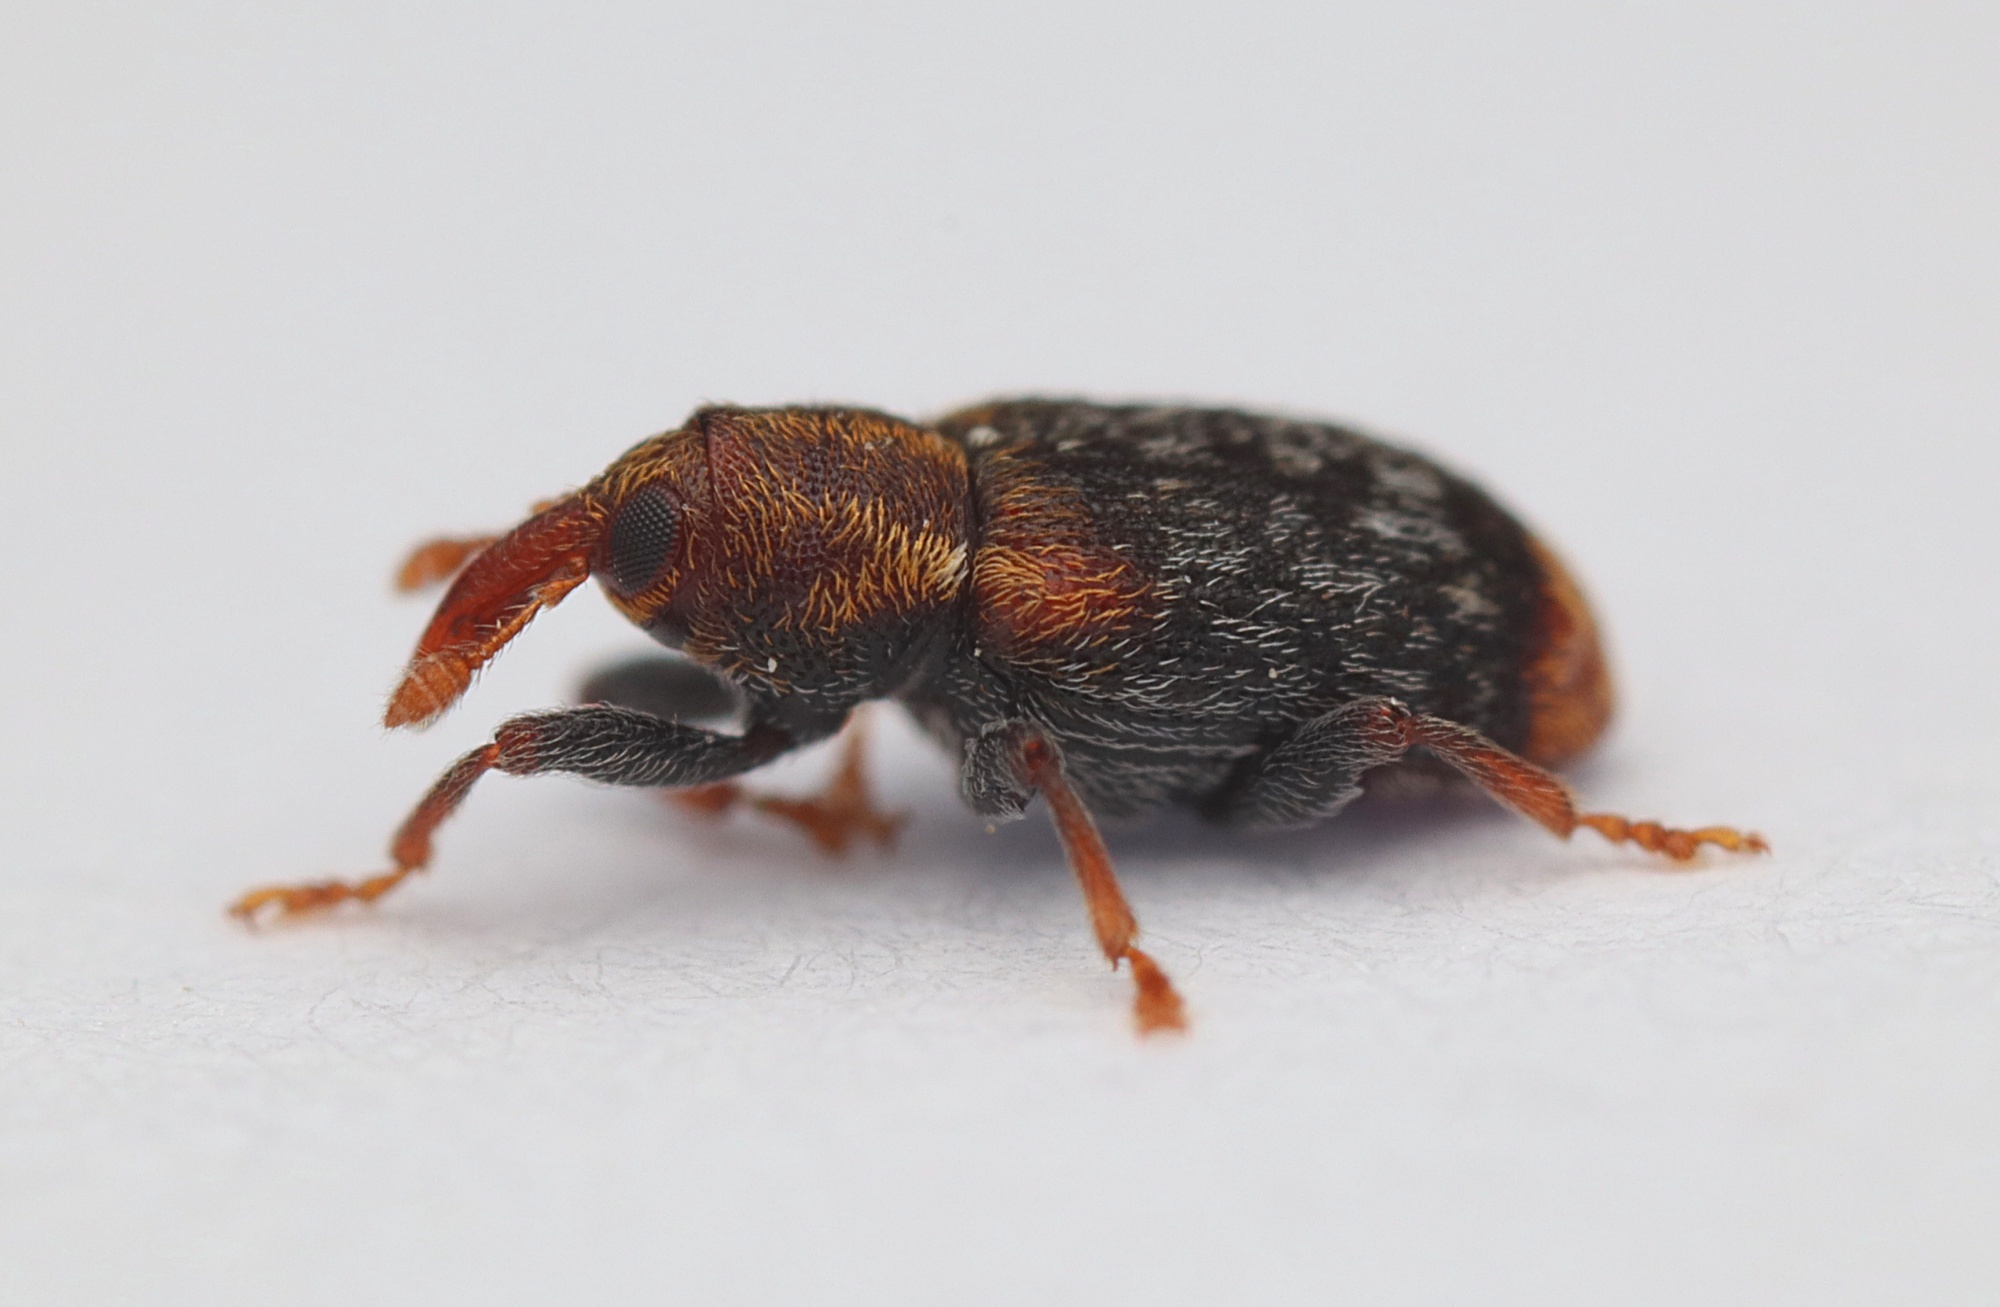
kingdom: Animalia
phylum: Arthropoda
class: Insecta
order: Coleoptera
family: Curculionidae
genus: Peristoreus
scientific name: Peristoreus flavitarsis
